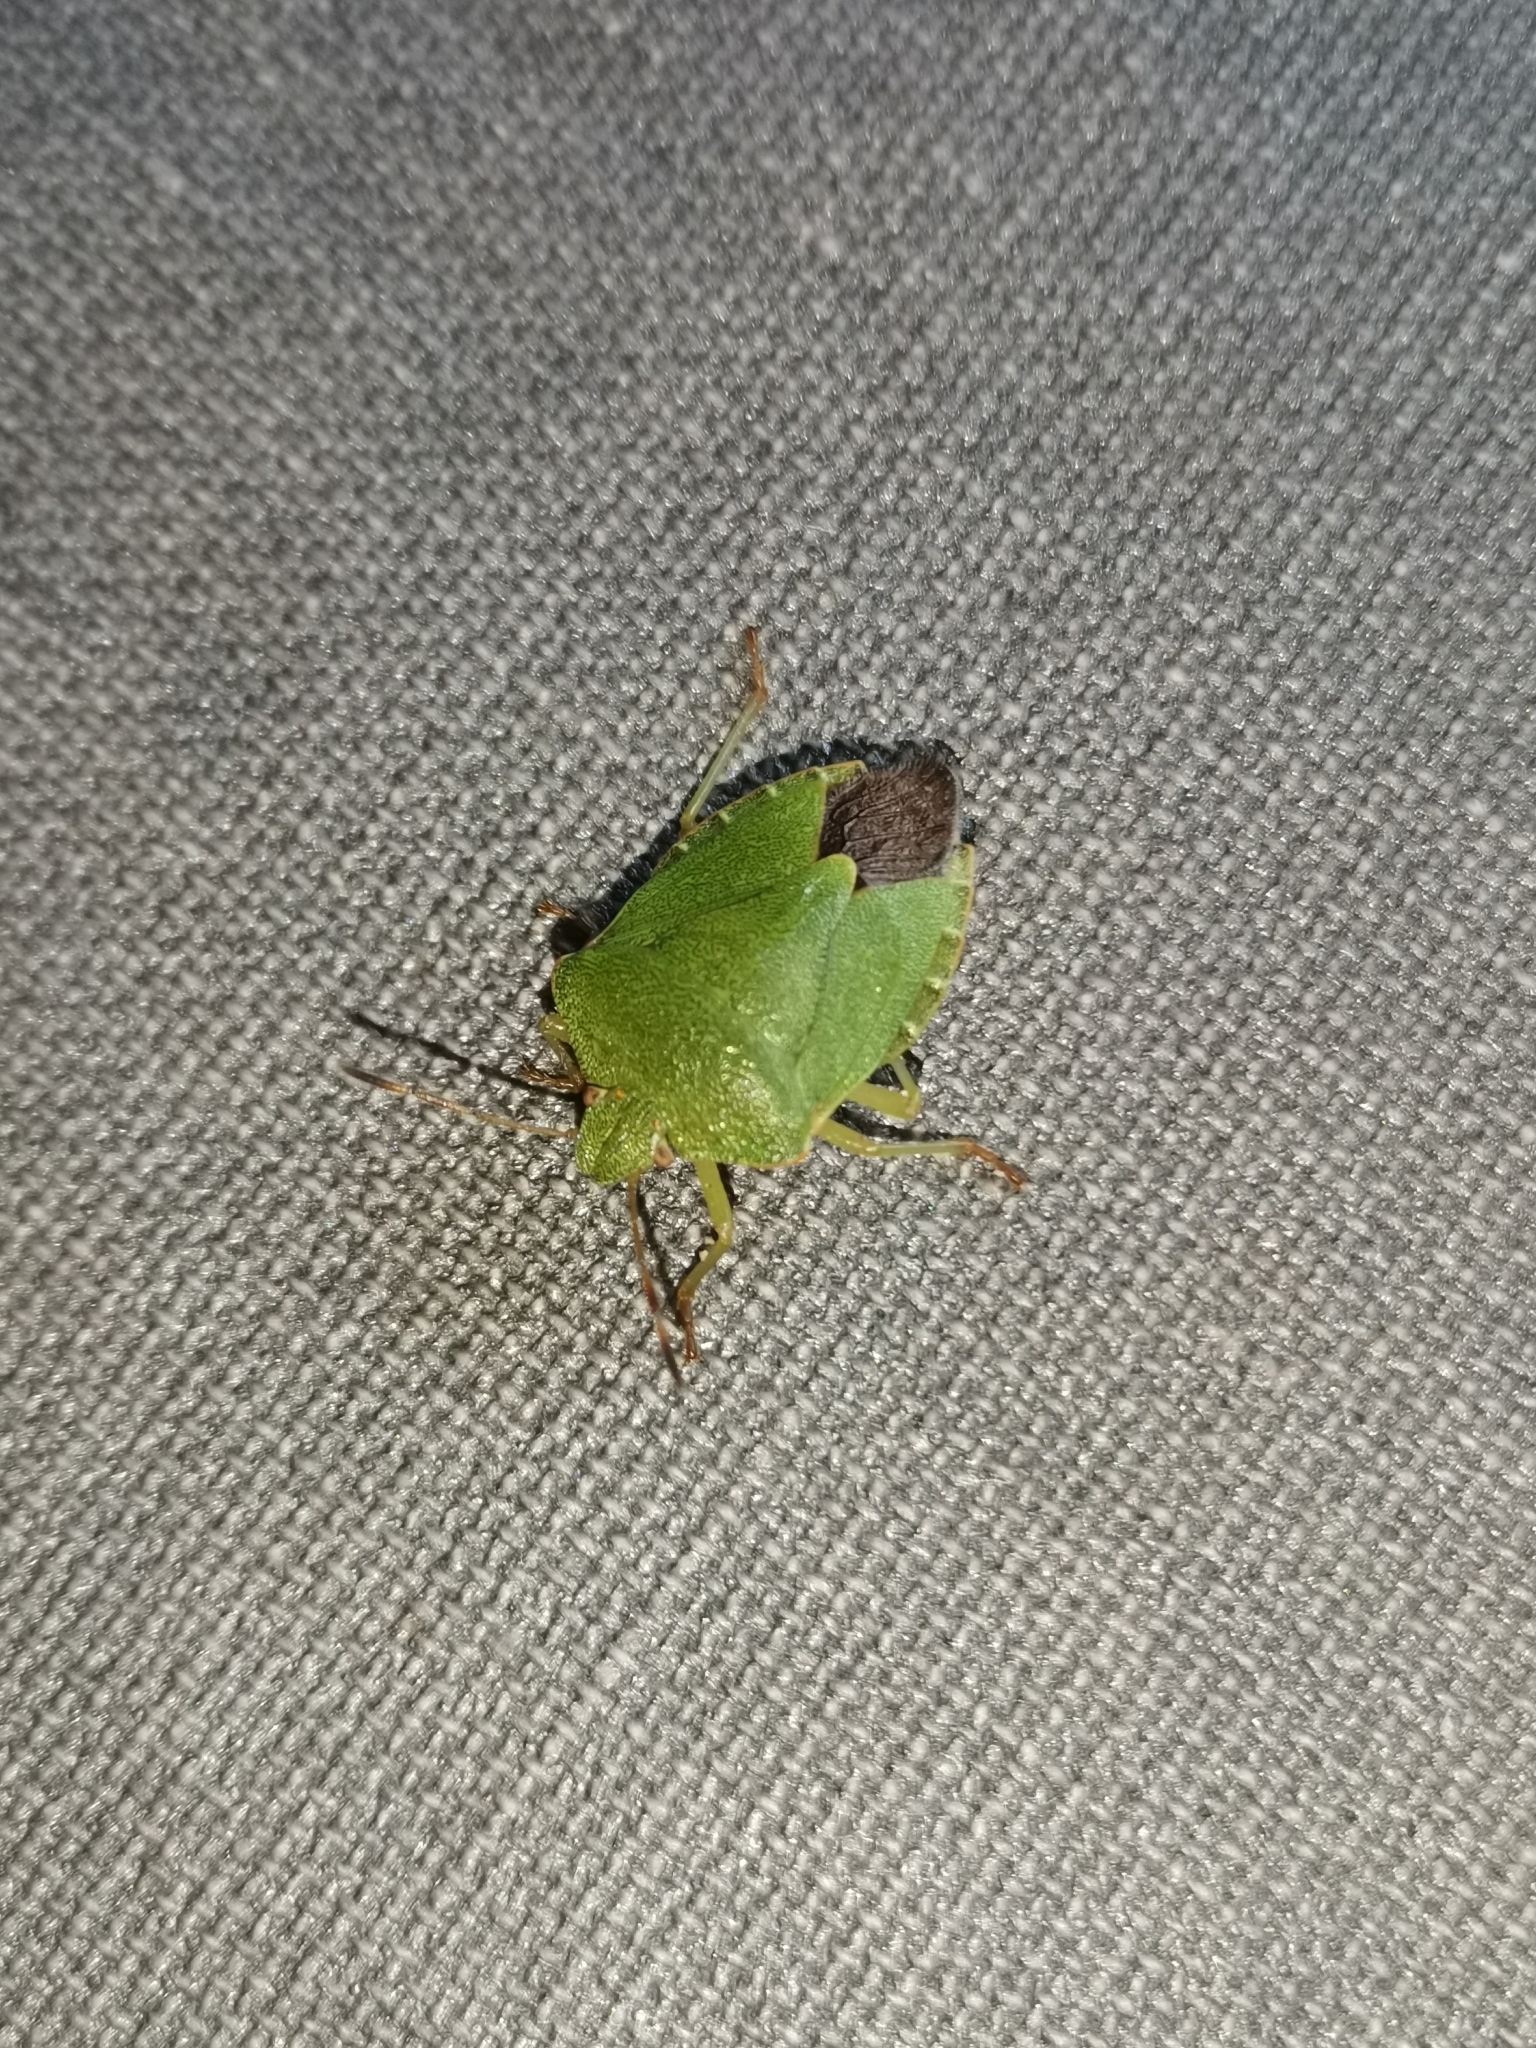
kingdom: Animalia
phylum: Arthropoda
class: Insecta
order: Hemiptera
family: Pentatomidae
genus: Palomena
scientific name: Palomena prasina
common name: Green shieldbug
